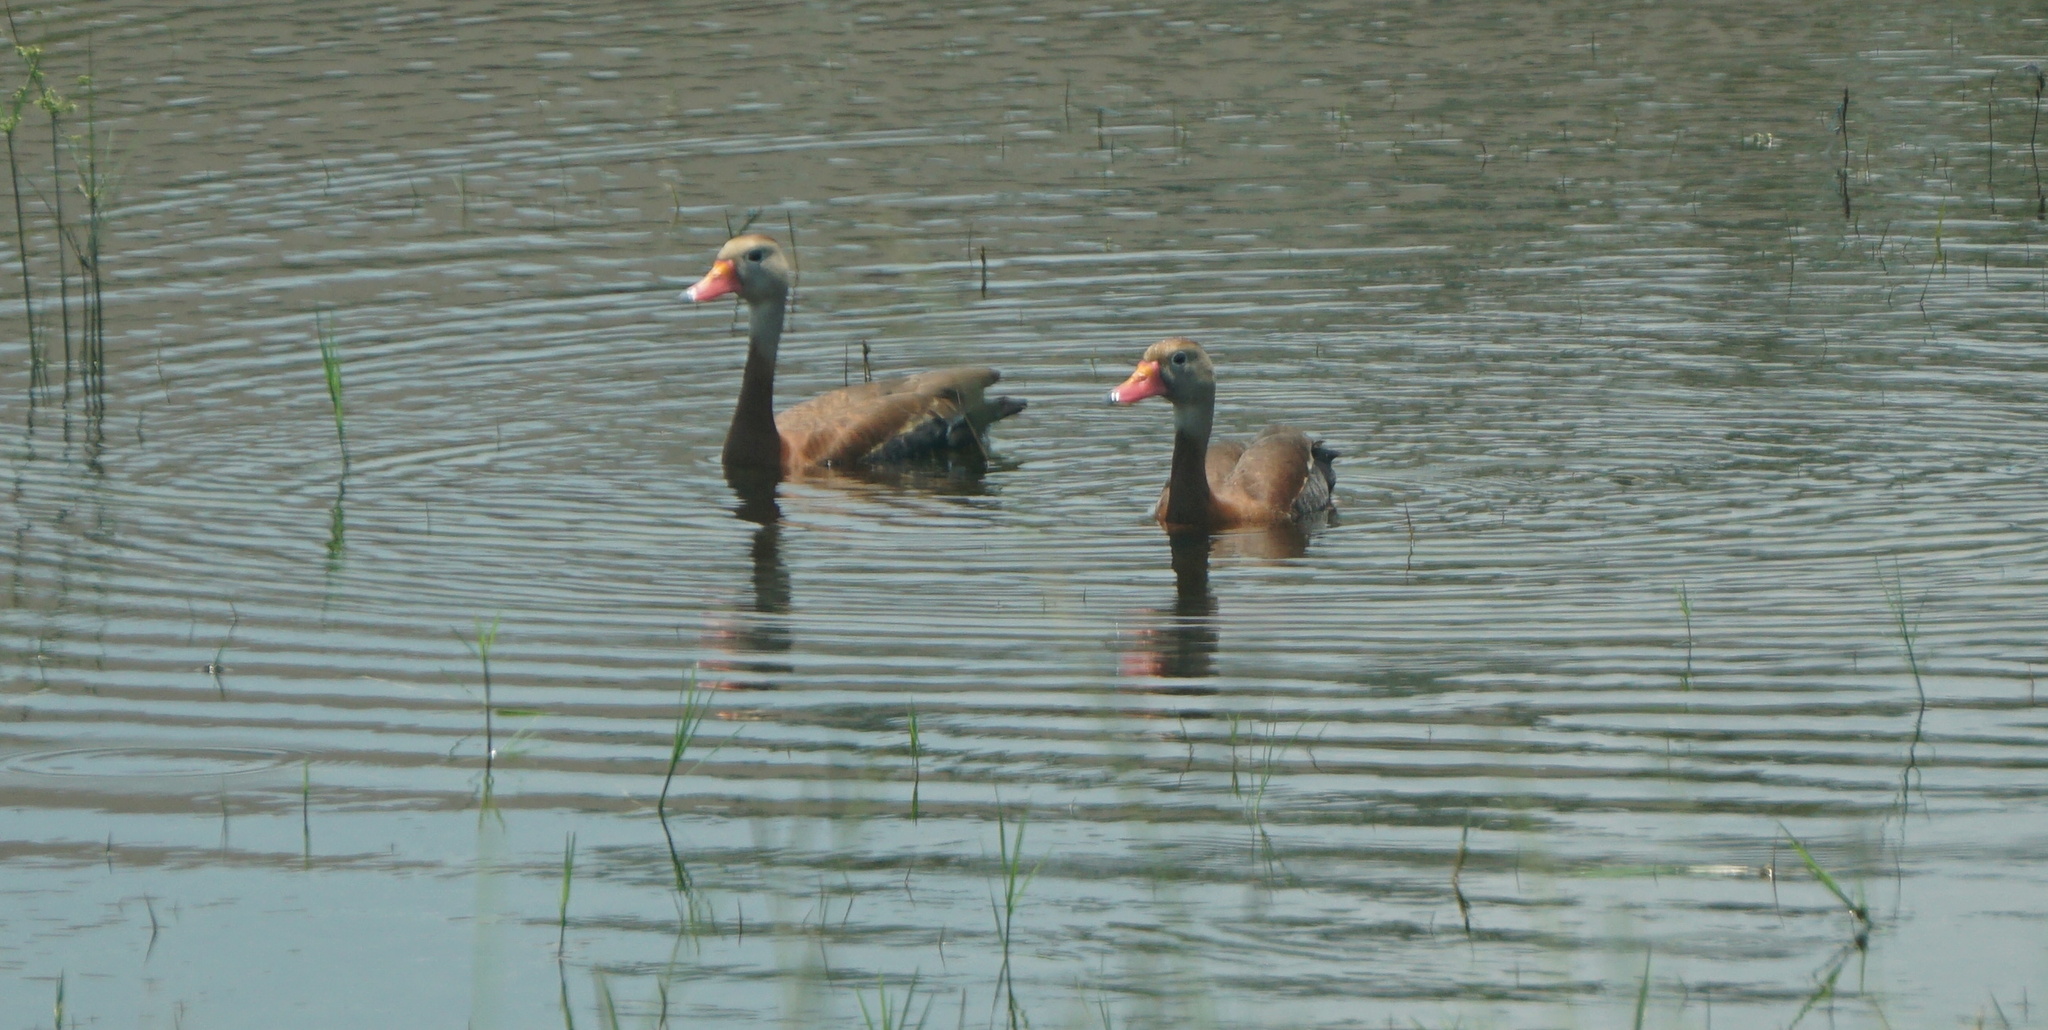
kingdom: Animalia
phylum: Chordata
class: Aves
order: Anseriformes
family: Anatidae
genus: Dendrocygna
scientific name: Dendrocygna autumnalis
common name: Black-bellied whistling duck
